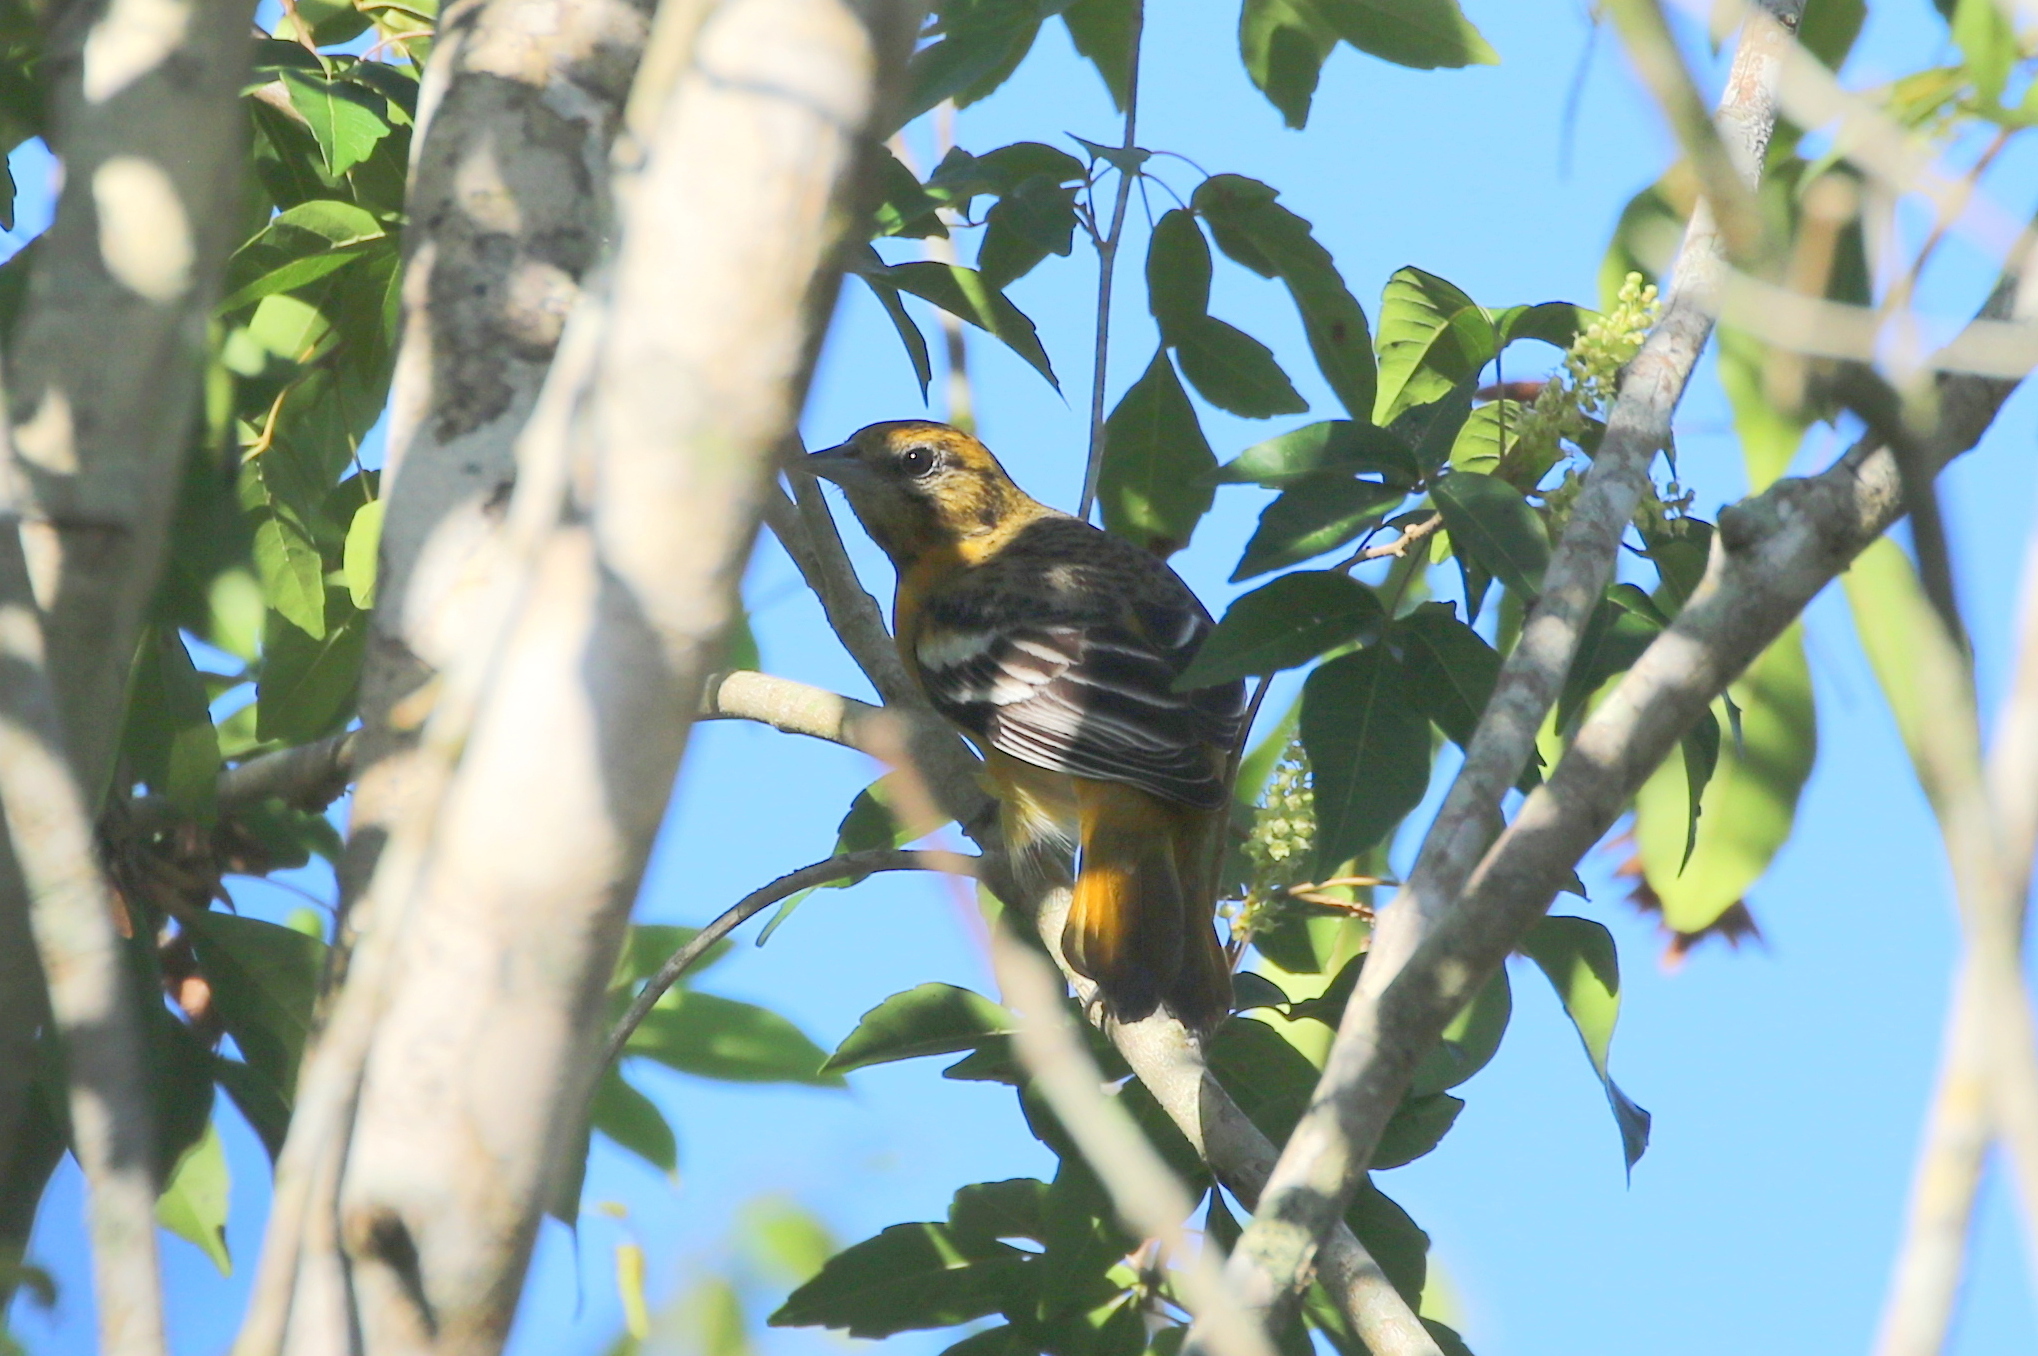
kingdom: Animalia
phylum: Chordata
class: Aves
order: Passeriformes
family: Icteridae
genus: Icterus
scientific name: Icterus galbula
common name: Baltimore oriole
